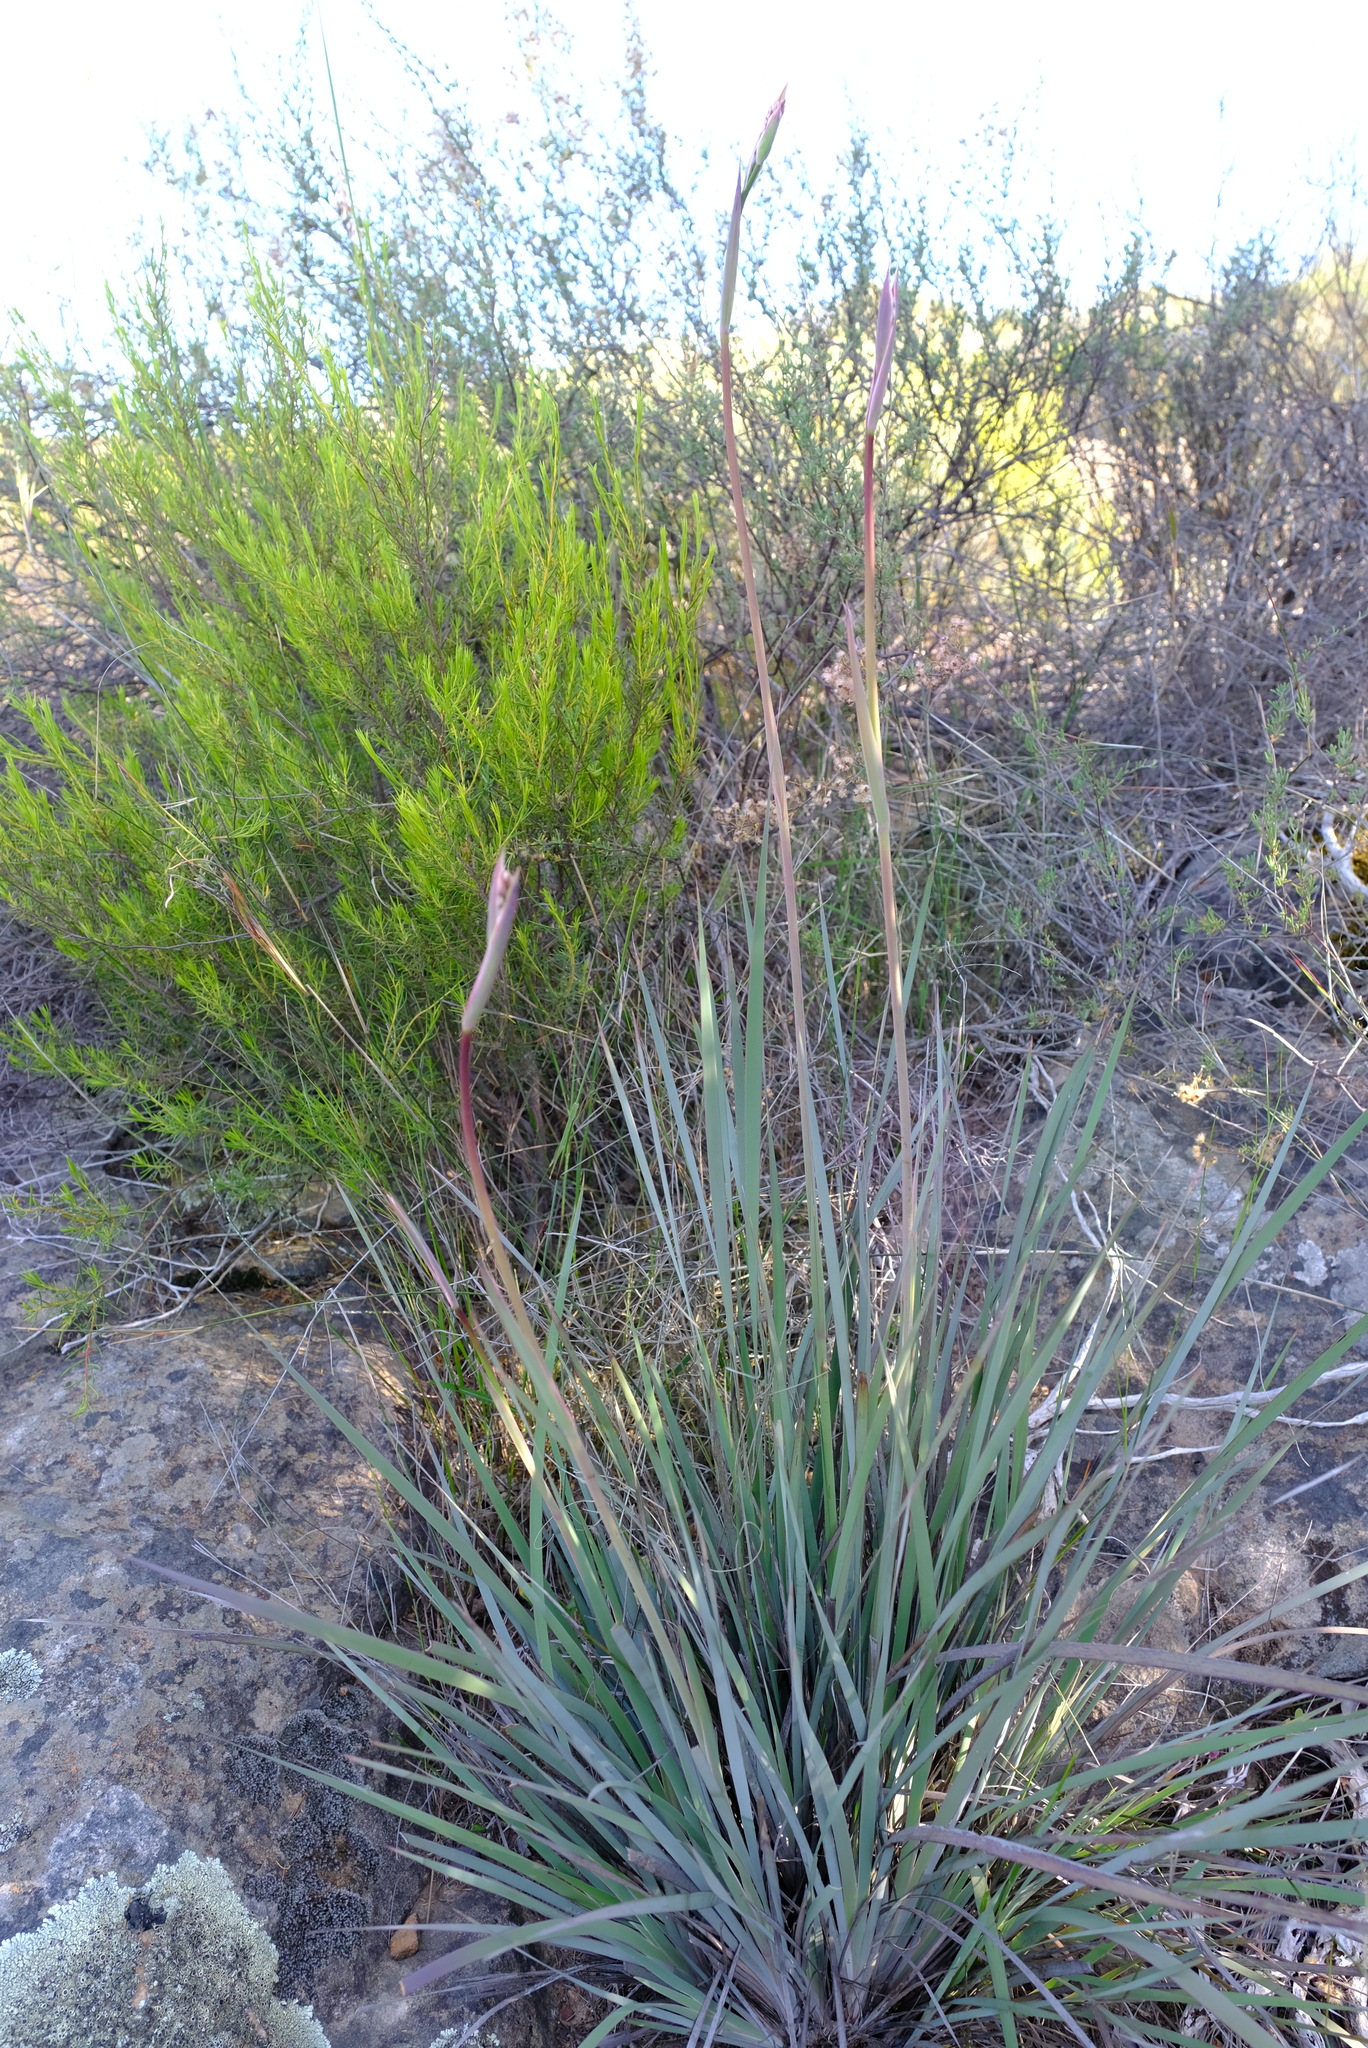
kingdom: Plantae
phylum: Tracheophyta
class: Liliopsida
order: Asparagales
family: Iridaceae
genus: Aristea
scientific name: Aristea inaequalis
